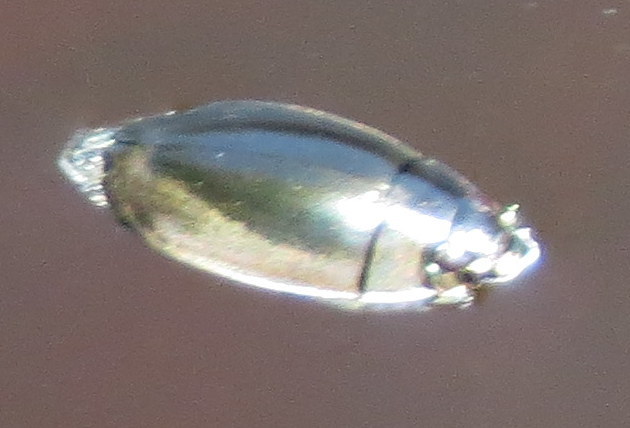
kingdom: Animalia
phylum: Arthropoda
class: Insecta
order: Coleoptera
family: Gyrinidae
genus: Dineutus
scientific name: Dineutus
